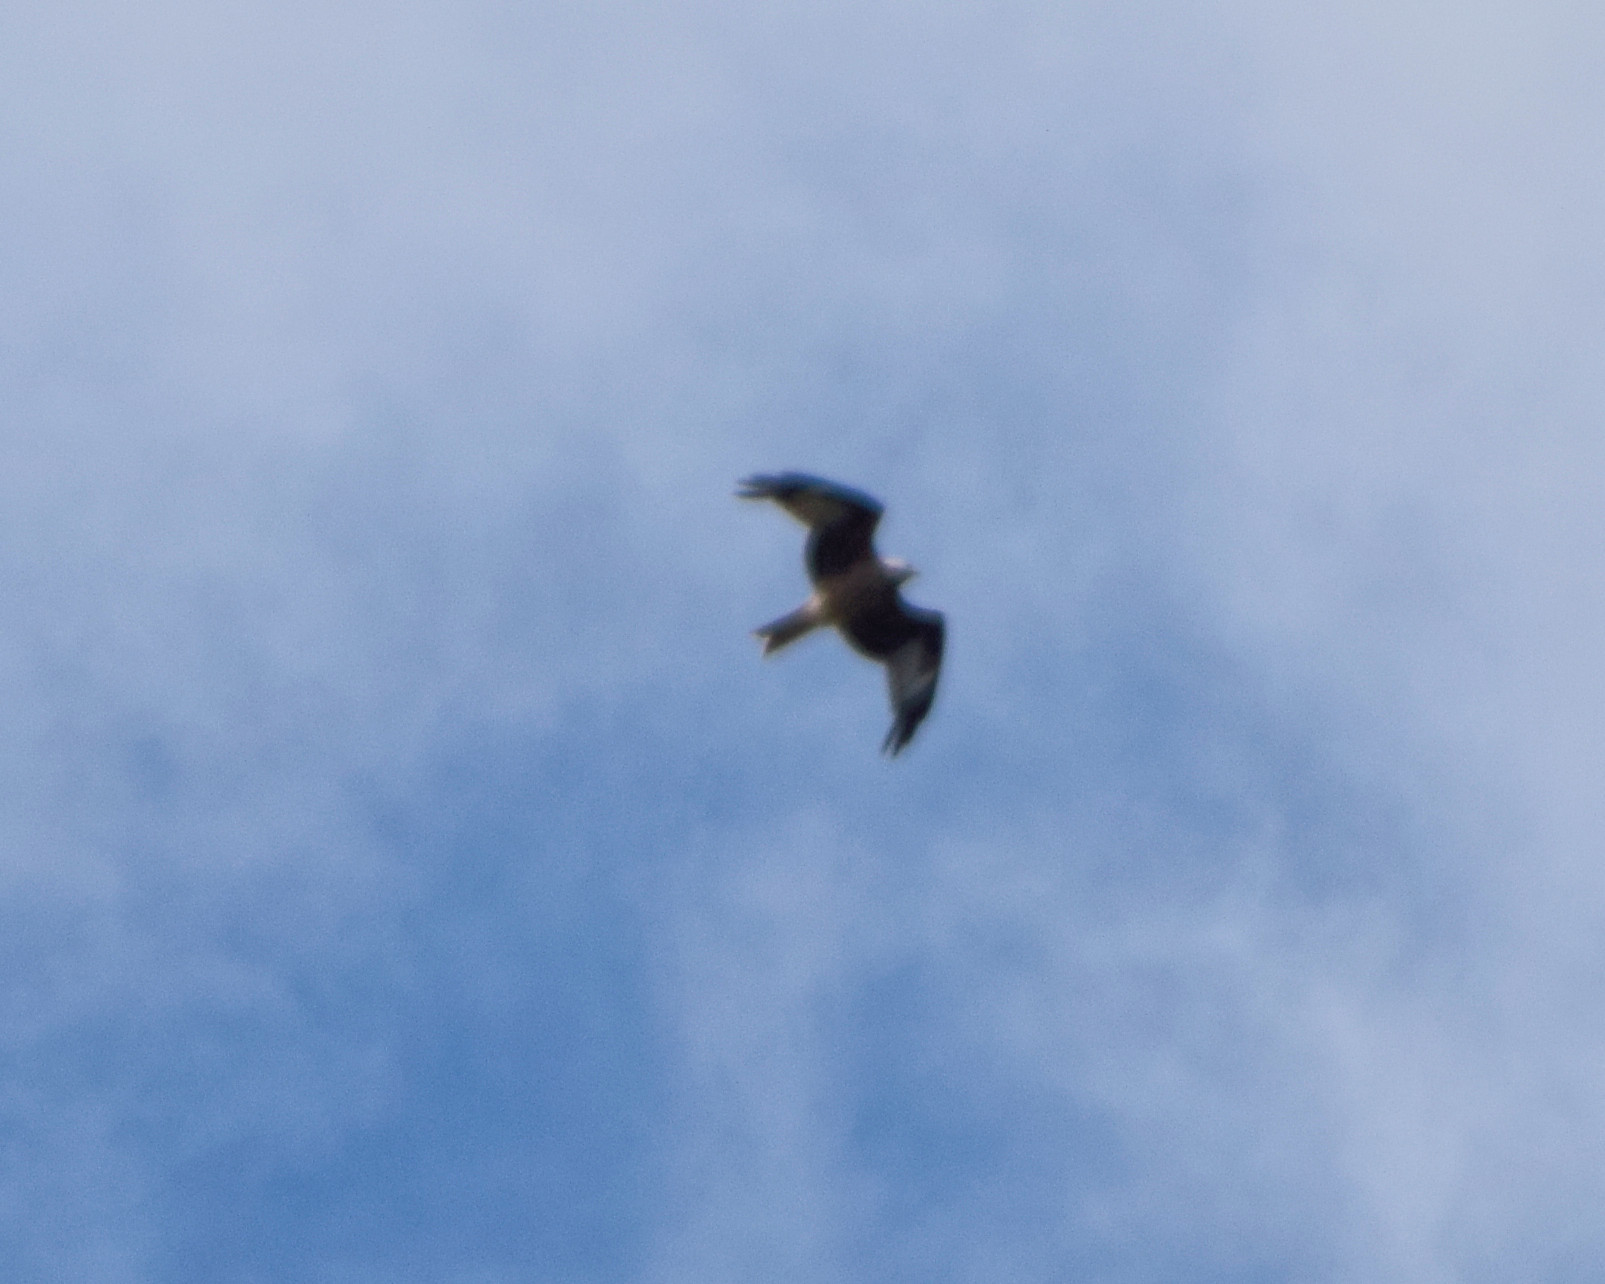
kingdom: Animalia
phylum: Chordata
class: Aves
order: Accipitriformes
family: Accipitridae
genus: Milvus
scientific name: Milvus milvus
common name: Red kite
